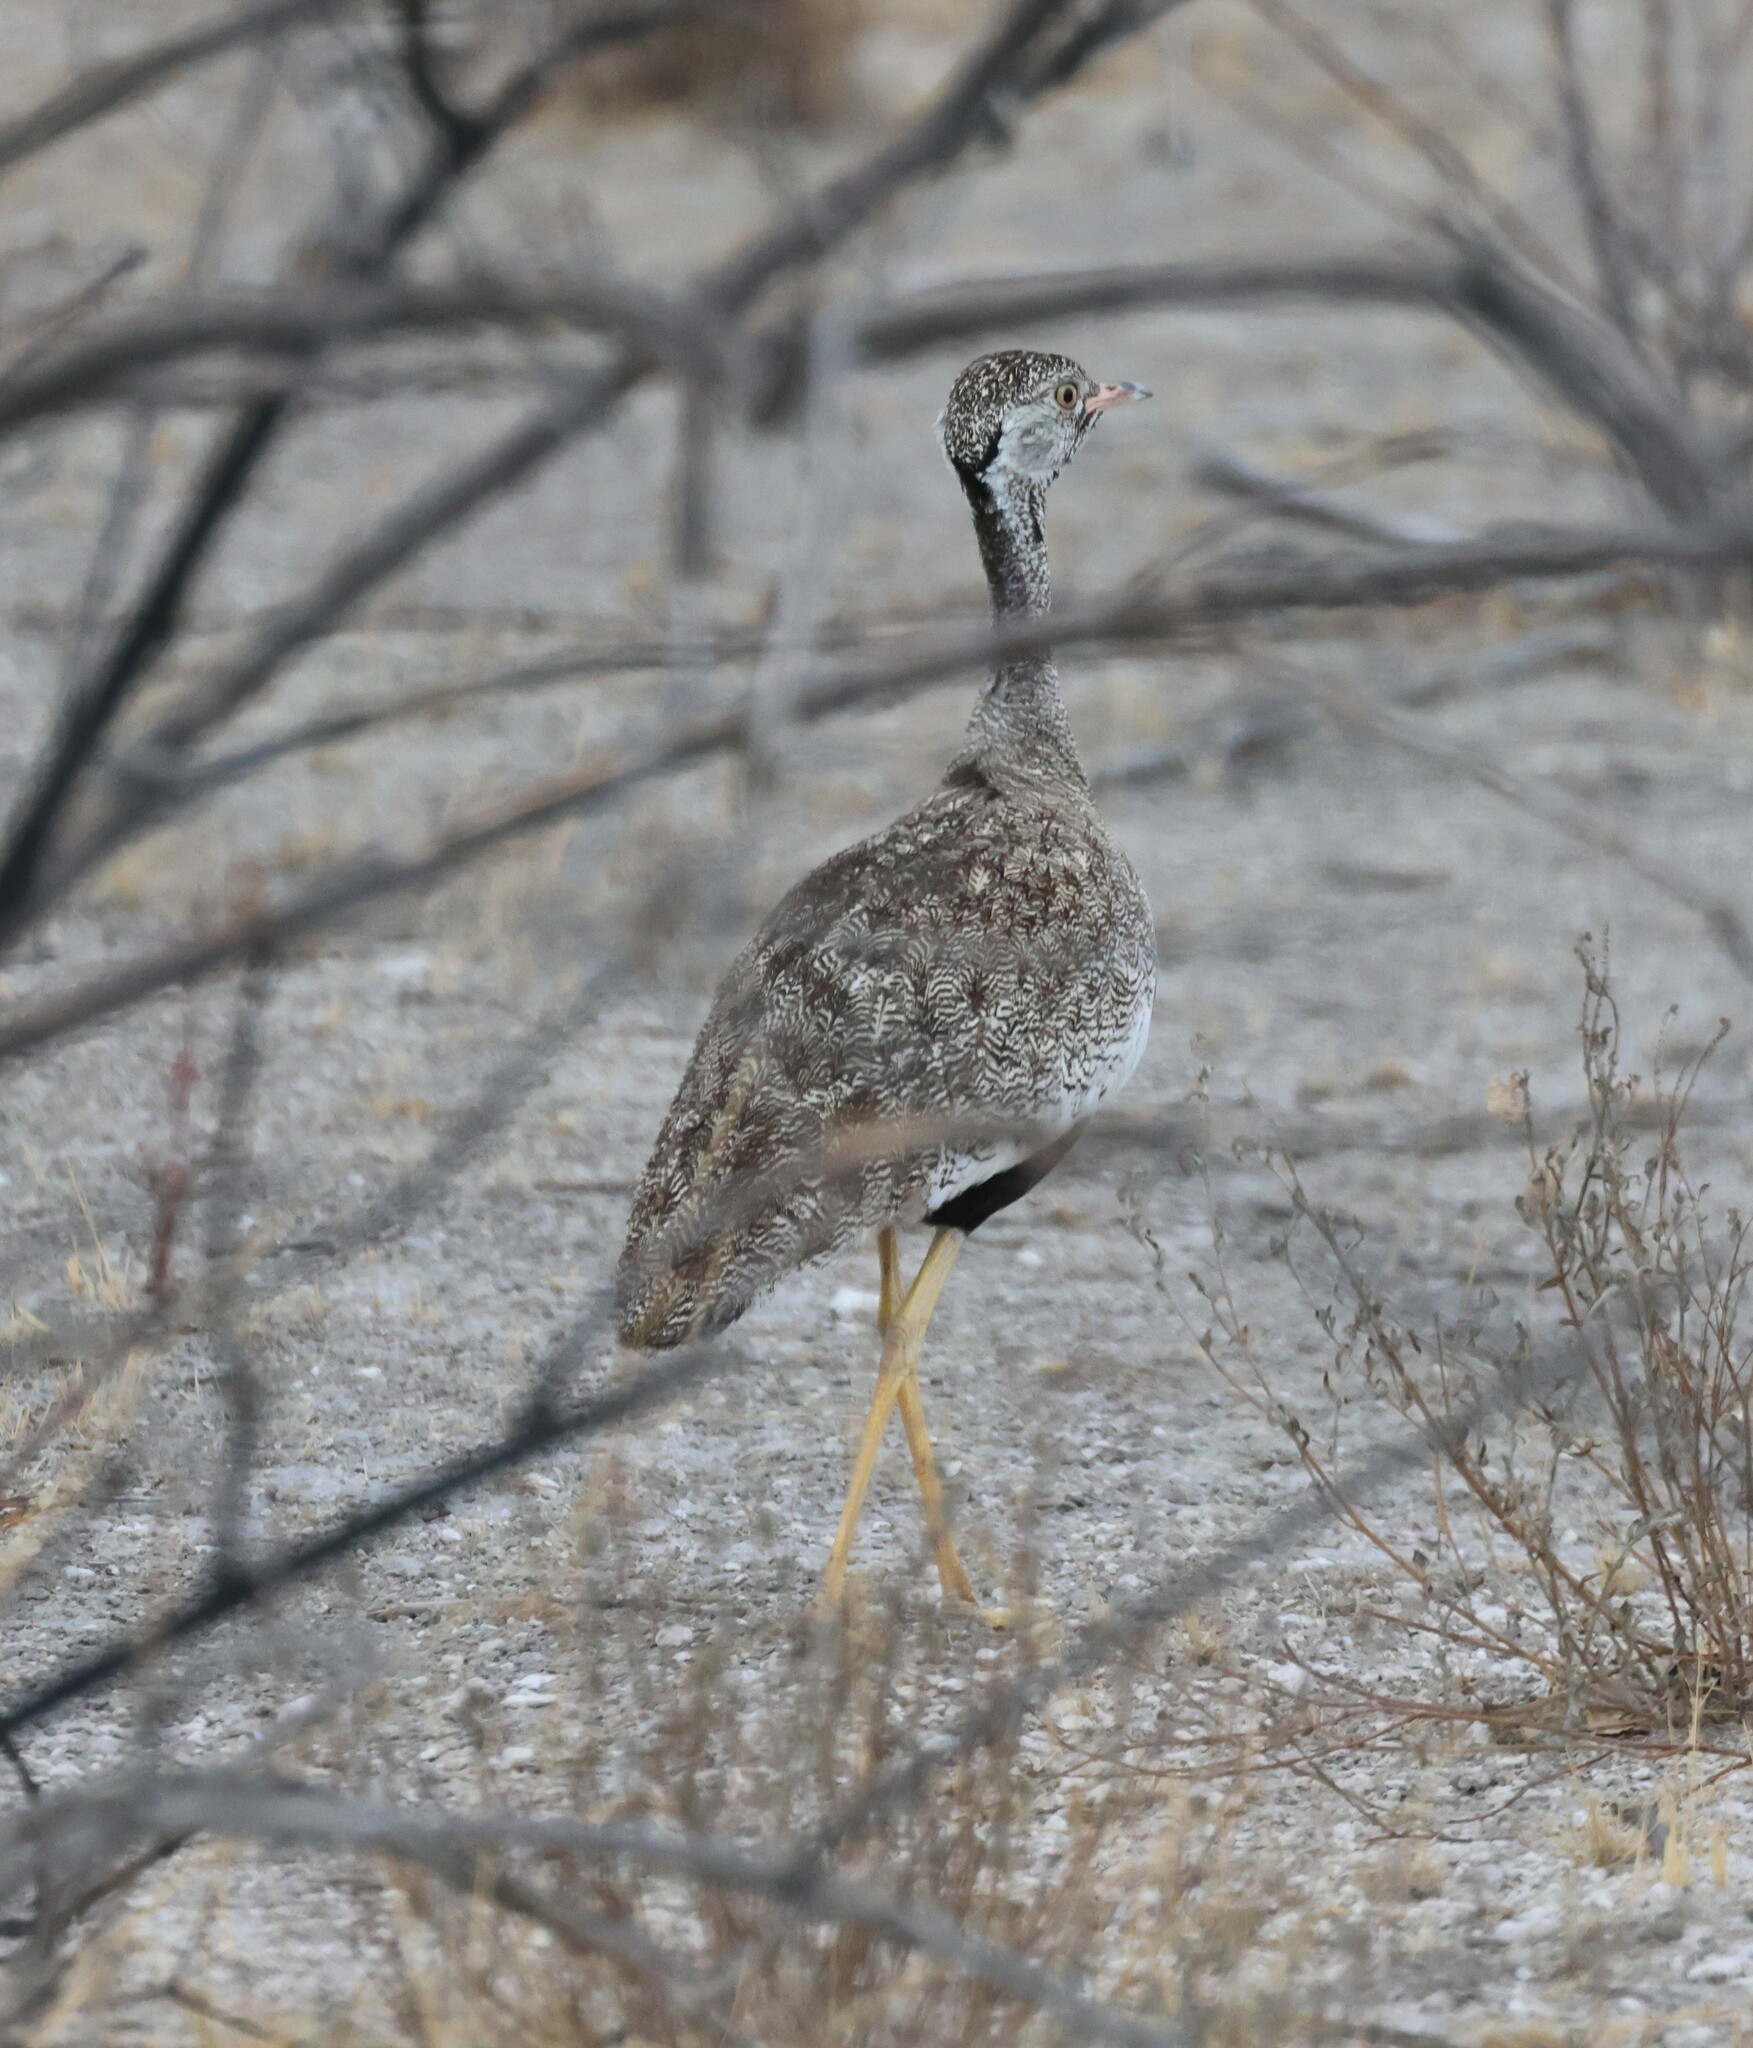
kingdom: Animalia
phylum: Chordata
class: Aves
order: Otidiformes
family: Otididae
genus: Afrotis
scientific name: Afrotis afraoides
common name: Northern black korhaan
